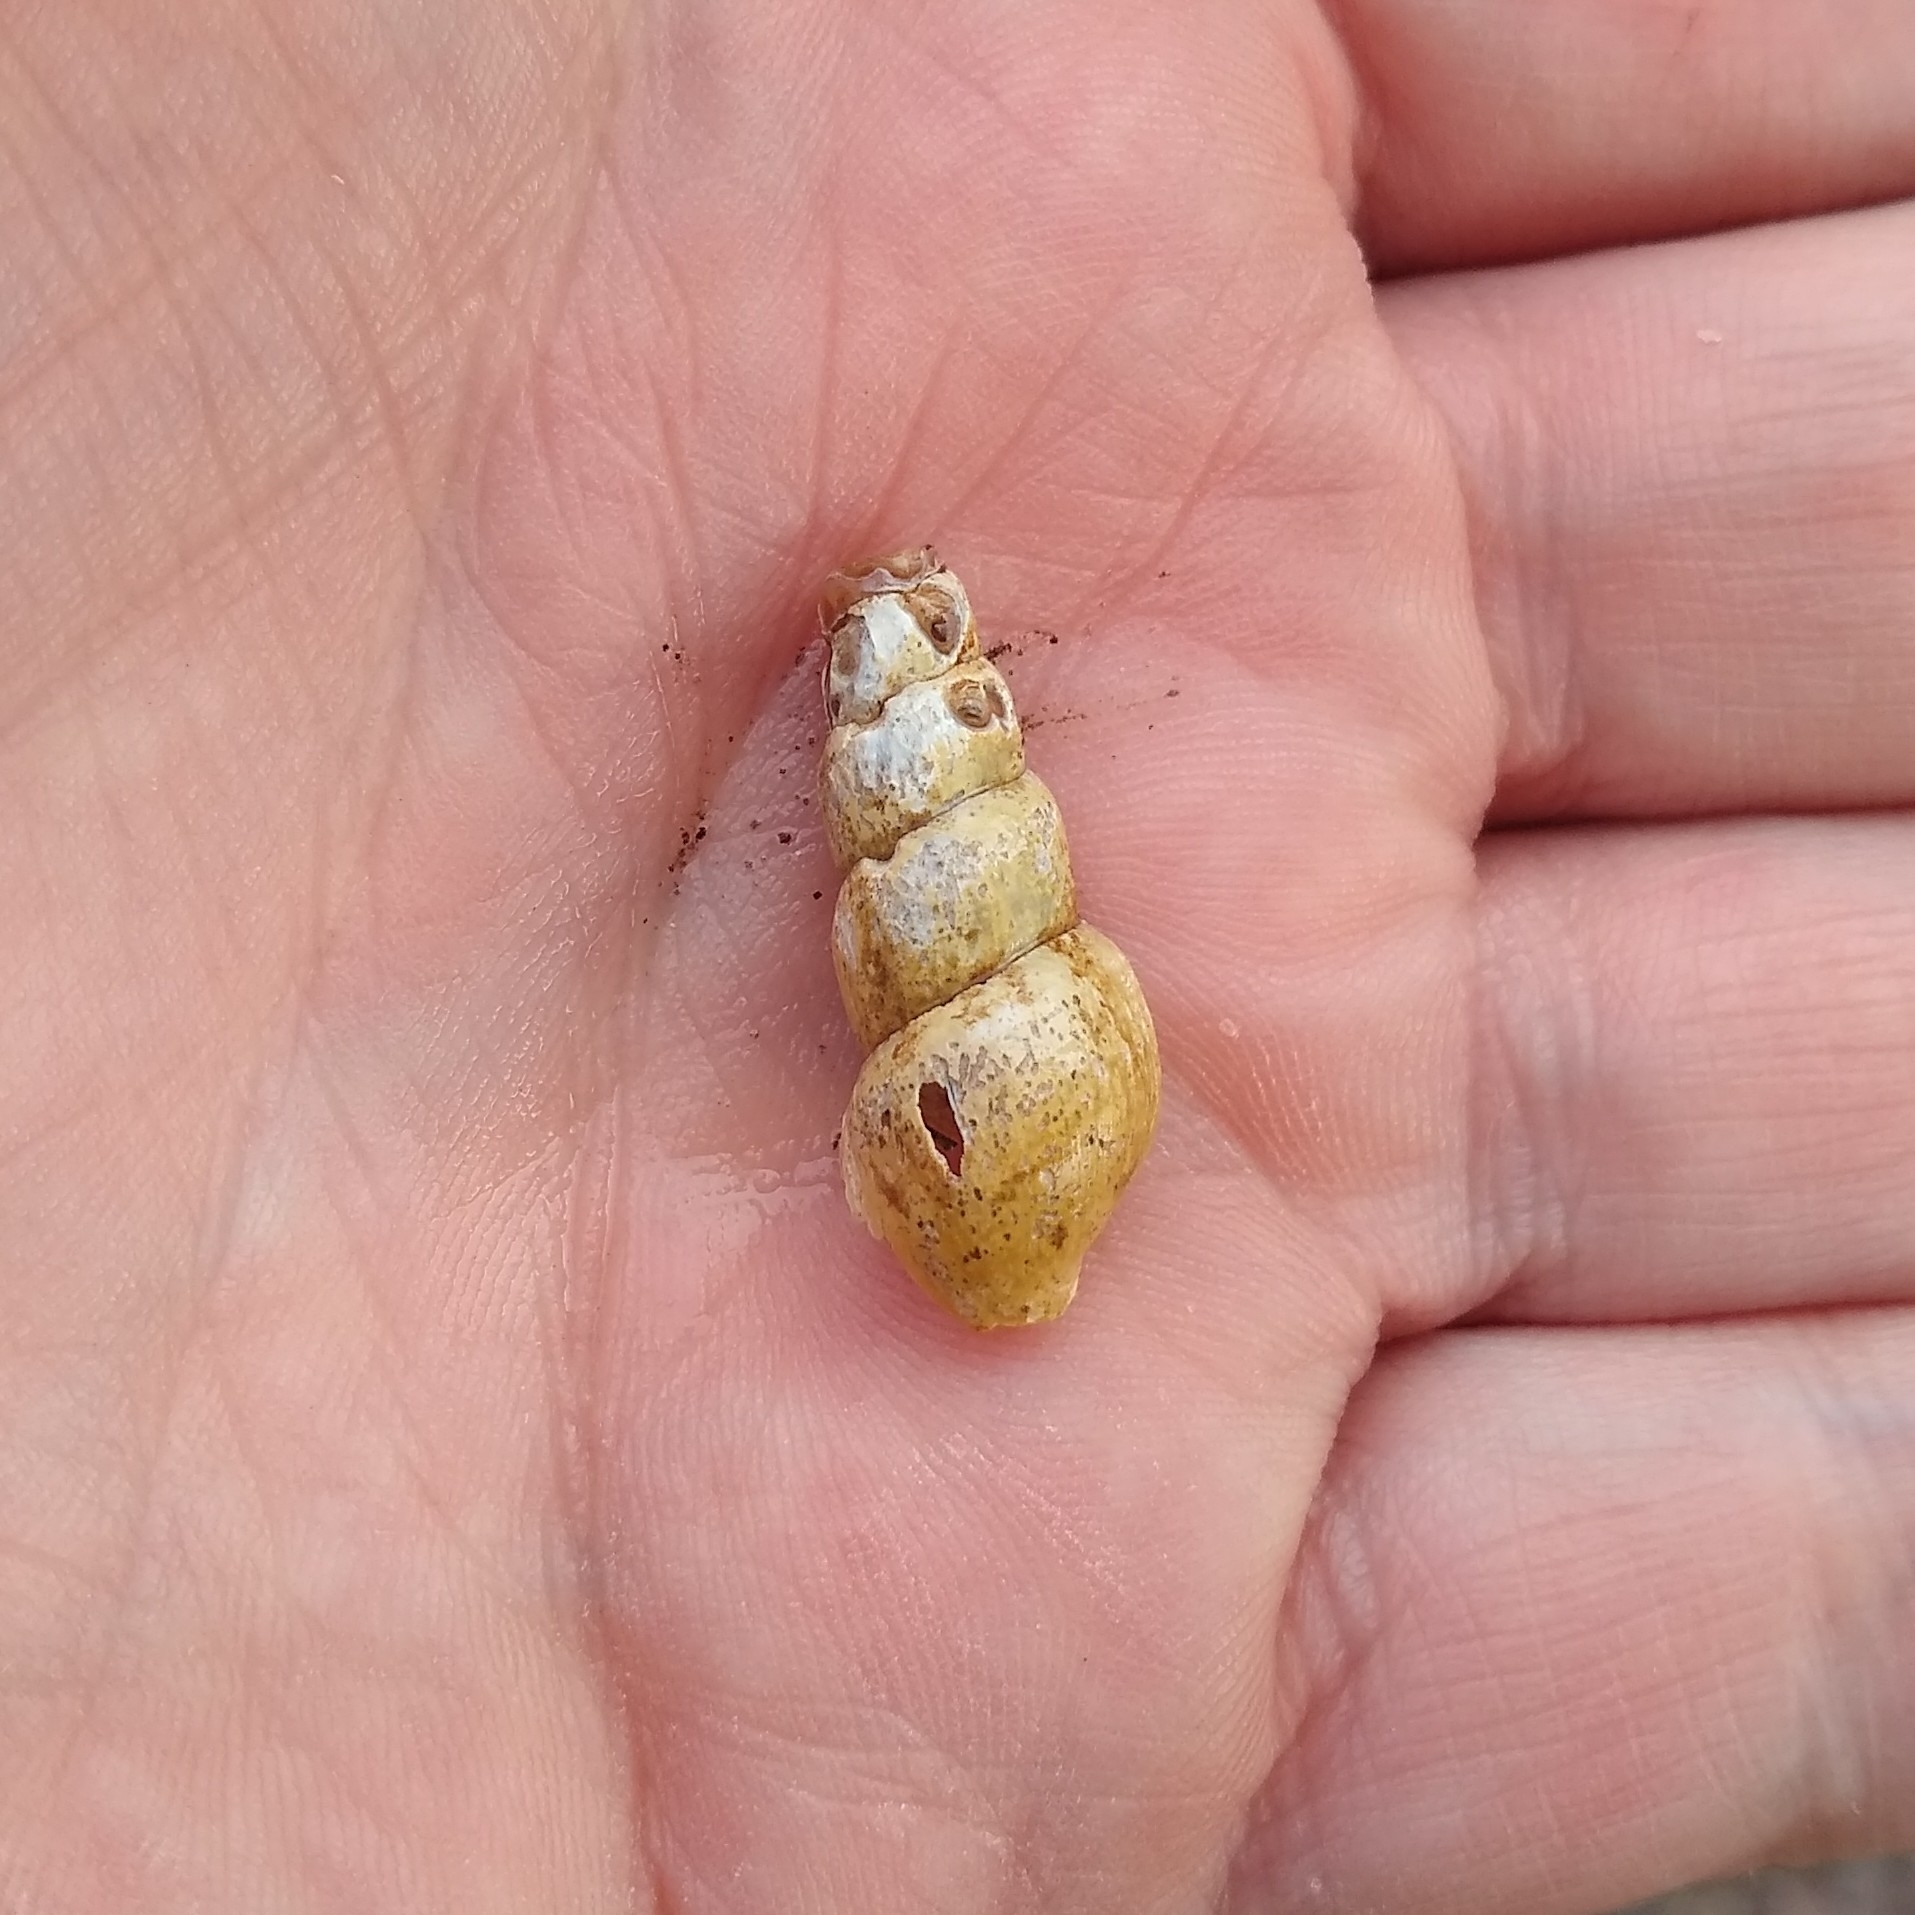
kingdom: Animalia
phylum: Mollusca
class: Gastropoda
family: Pleuroceridae
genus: Elimia
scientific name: Elimia virginica
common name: Piedmont elimia
